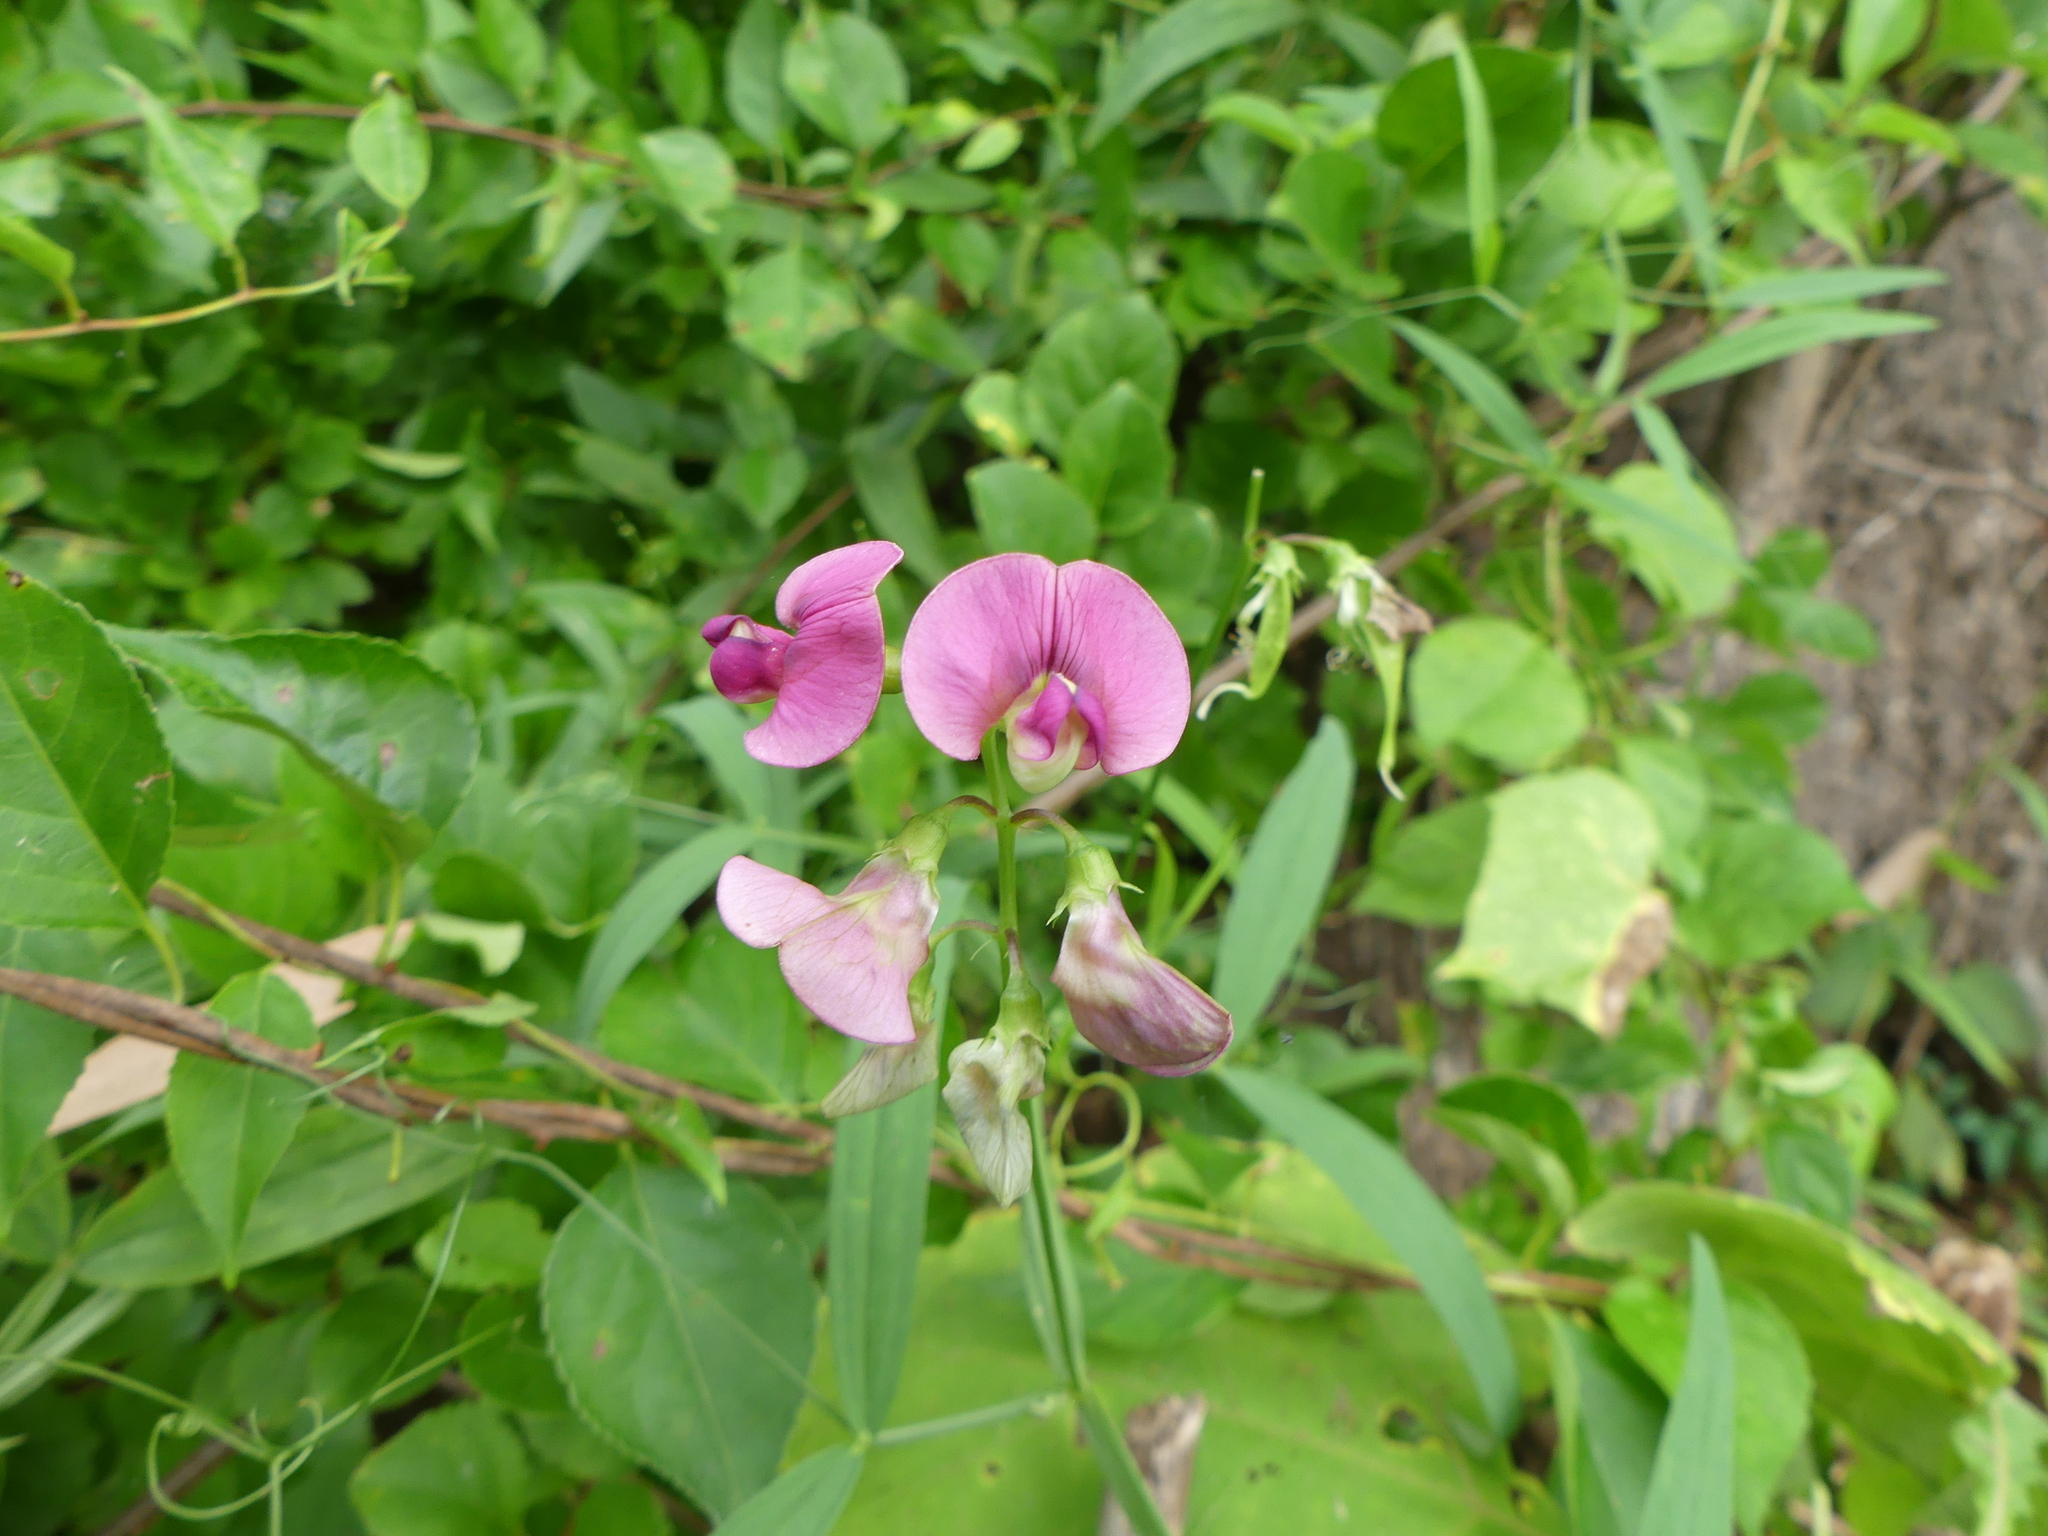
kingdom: Plantae
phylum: Tracheophyta
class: Magnoliopsida
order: Fabales
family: Fabaceae
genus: Lathyrus
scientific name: Lathyrus sylvestris
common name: Flat pea
